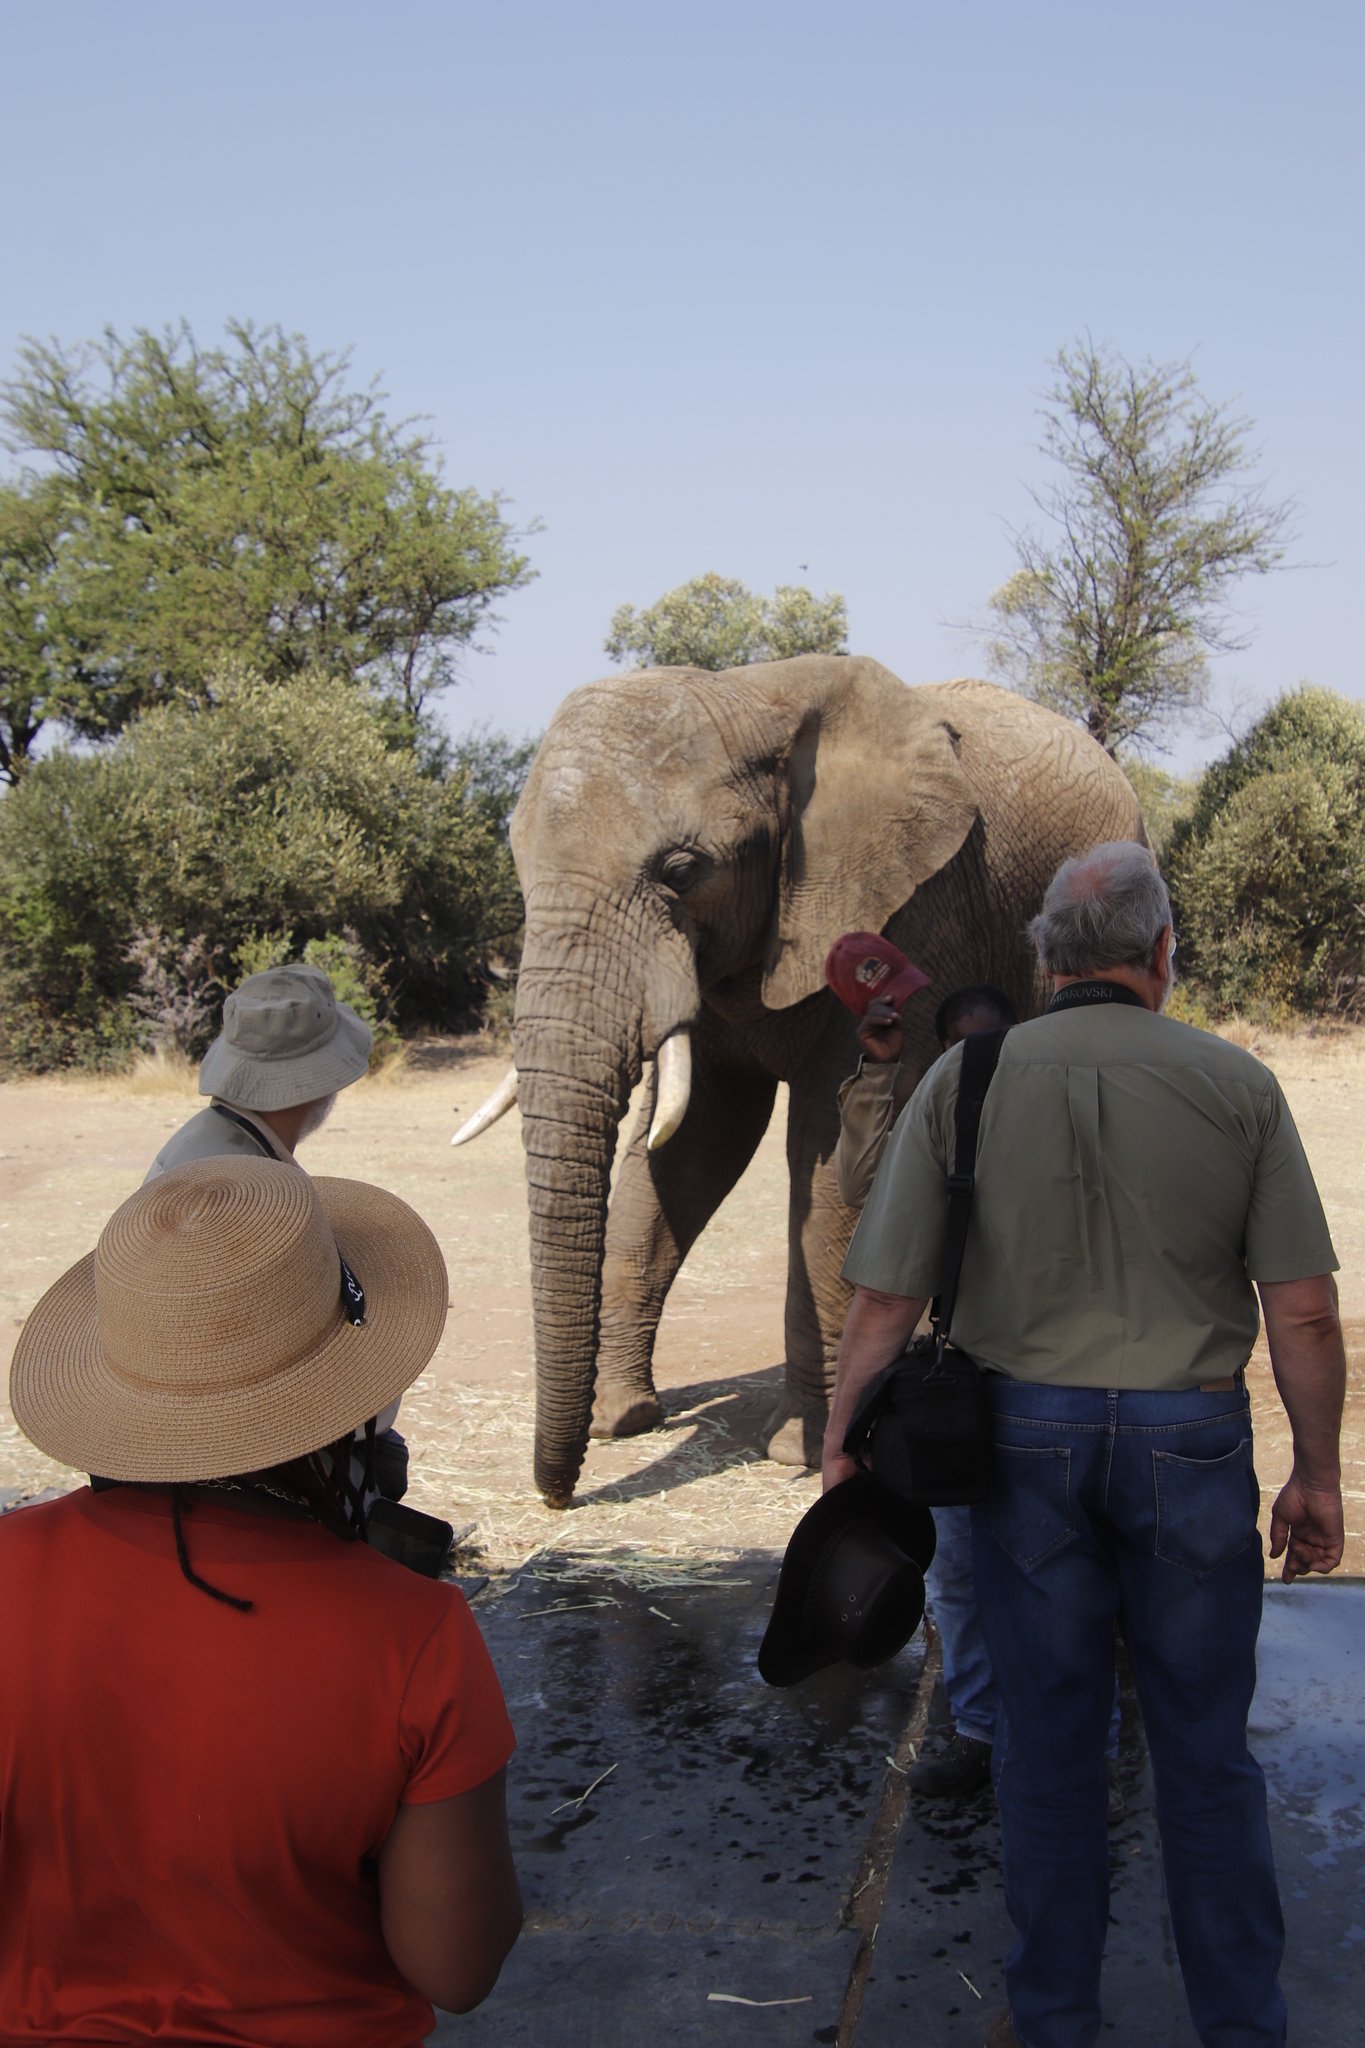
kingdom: Animalia
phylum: Chordata
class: Mammalia
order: Proboscidea
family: Elephantidae
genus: Loxodonta
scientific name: Loxodonta africana
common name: African elephant
